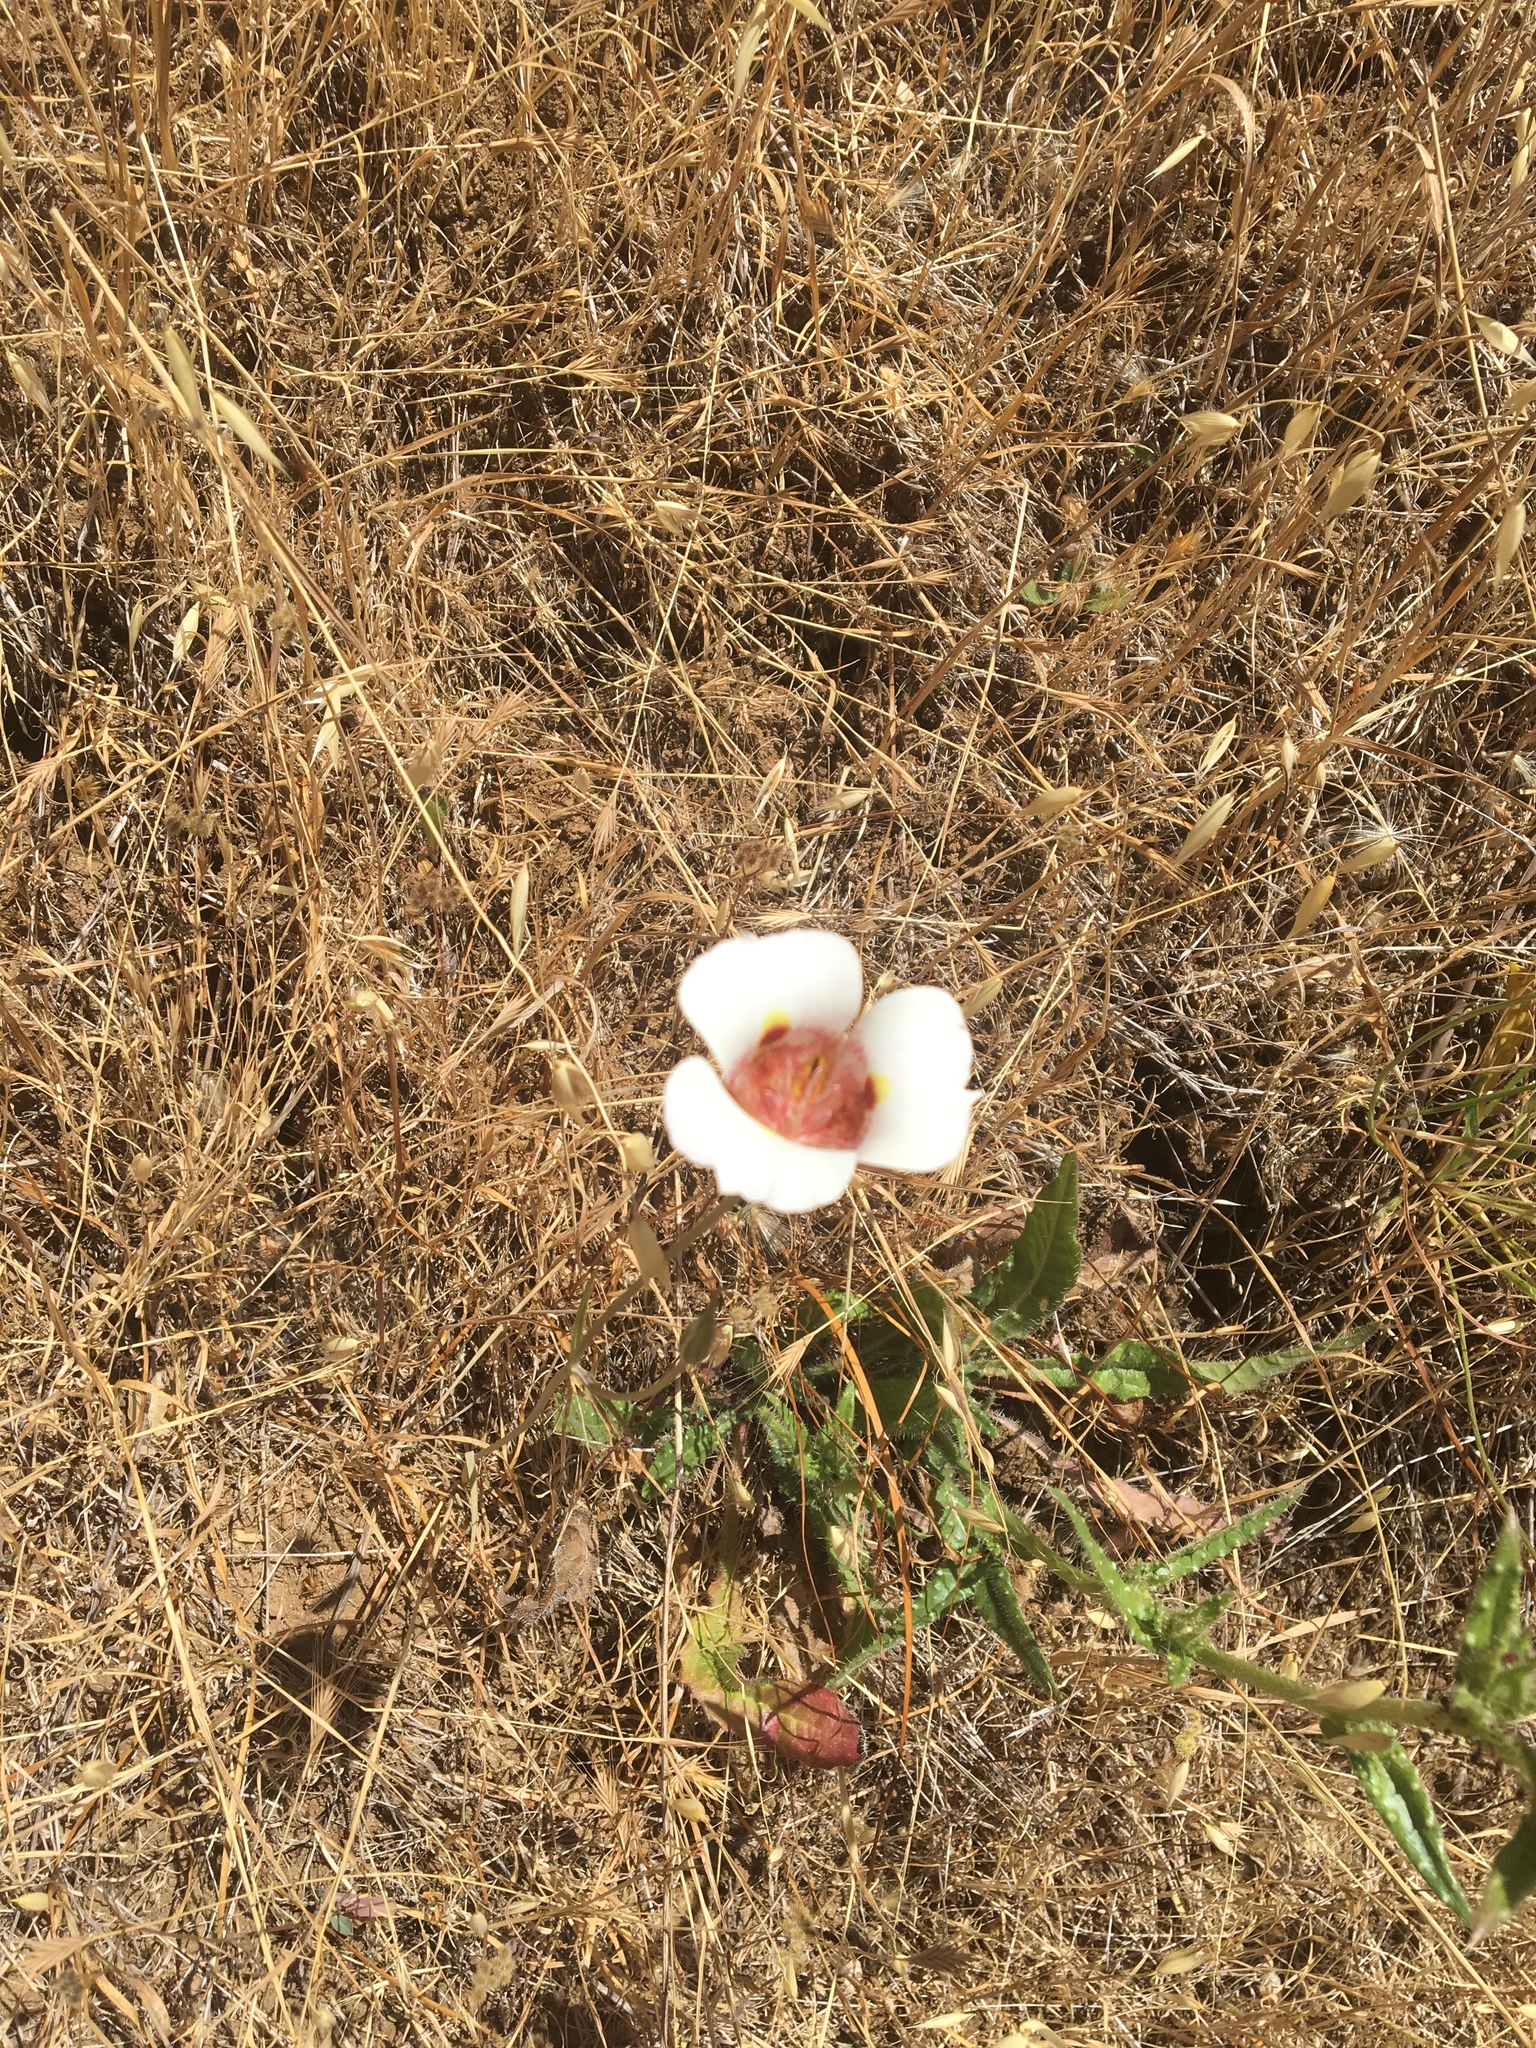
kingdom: Plantae
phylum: Tracheophyta
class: Liliopsida
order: Liliales
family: Liliaceae
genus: Calochortus
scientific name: Calochortus
